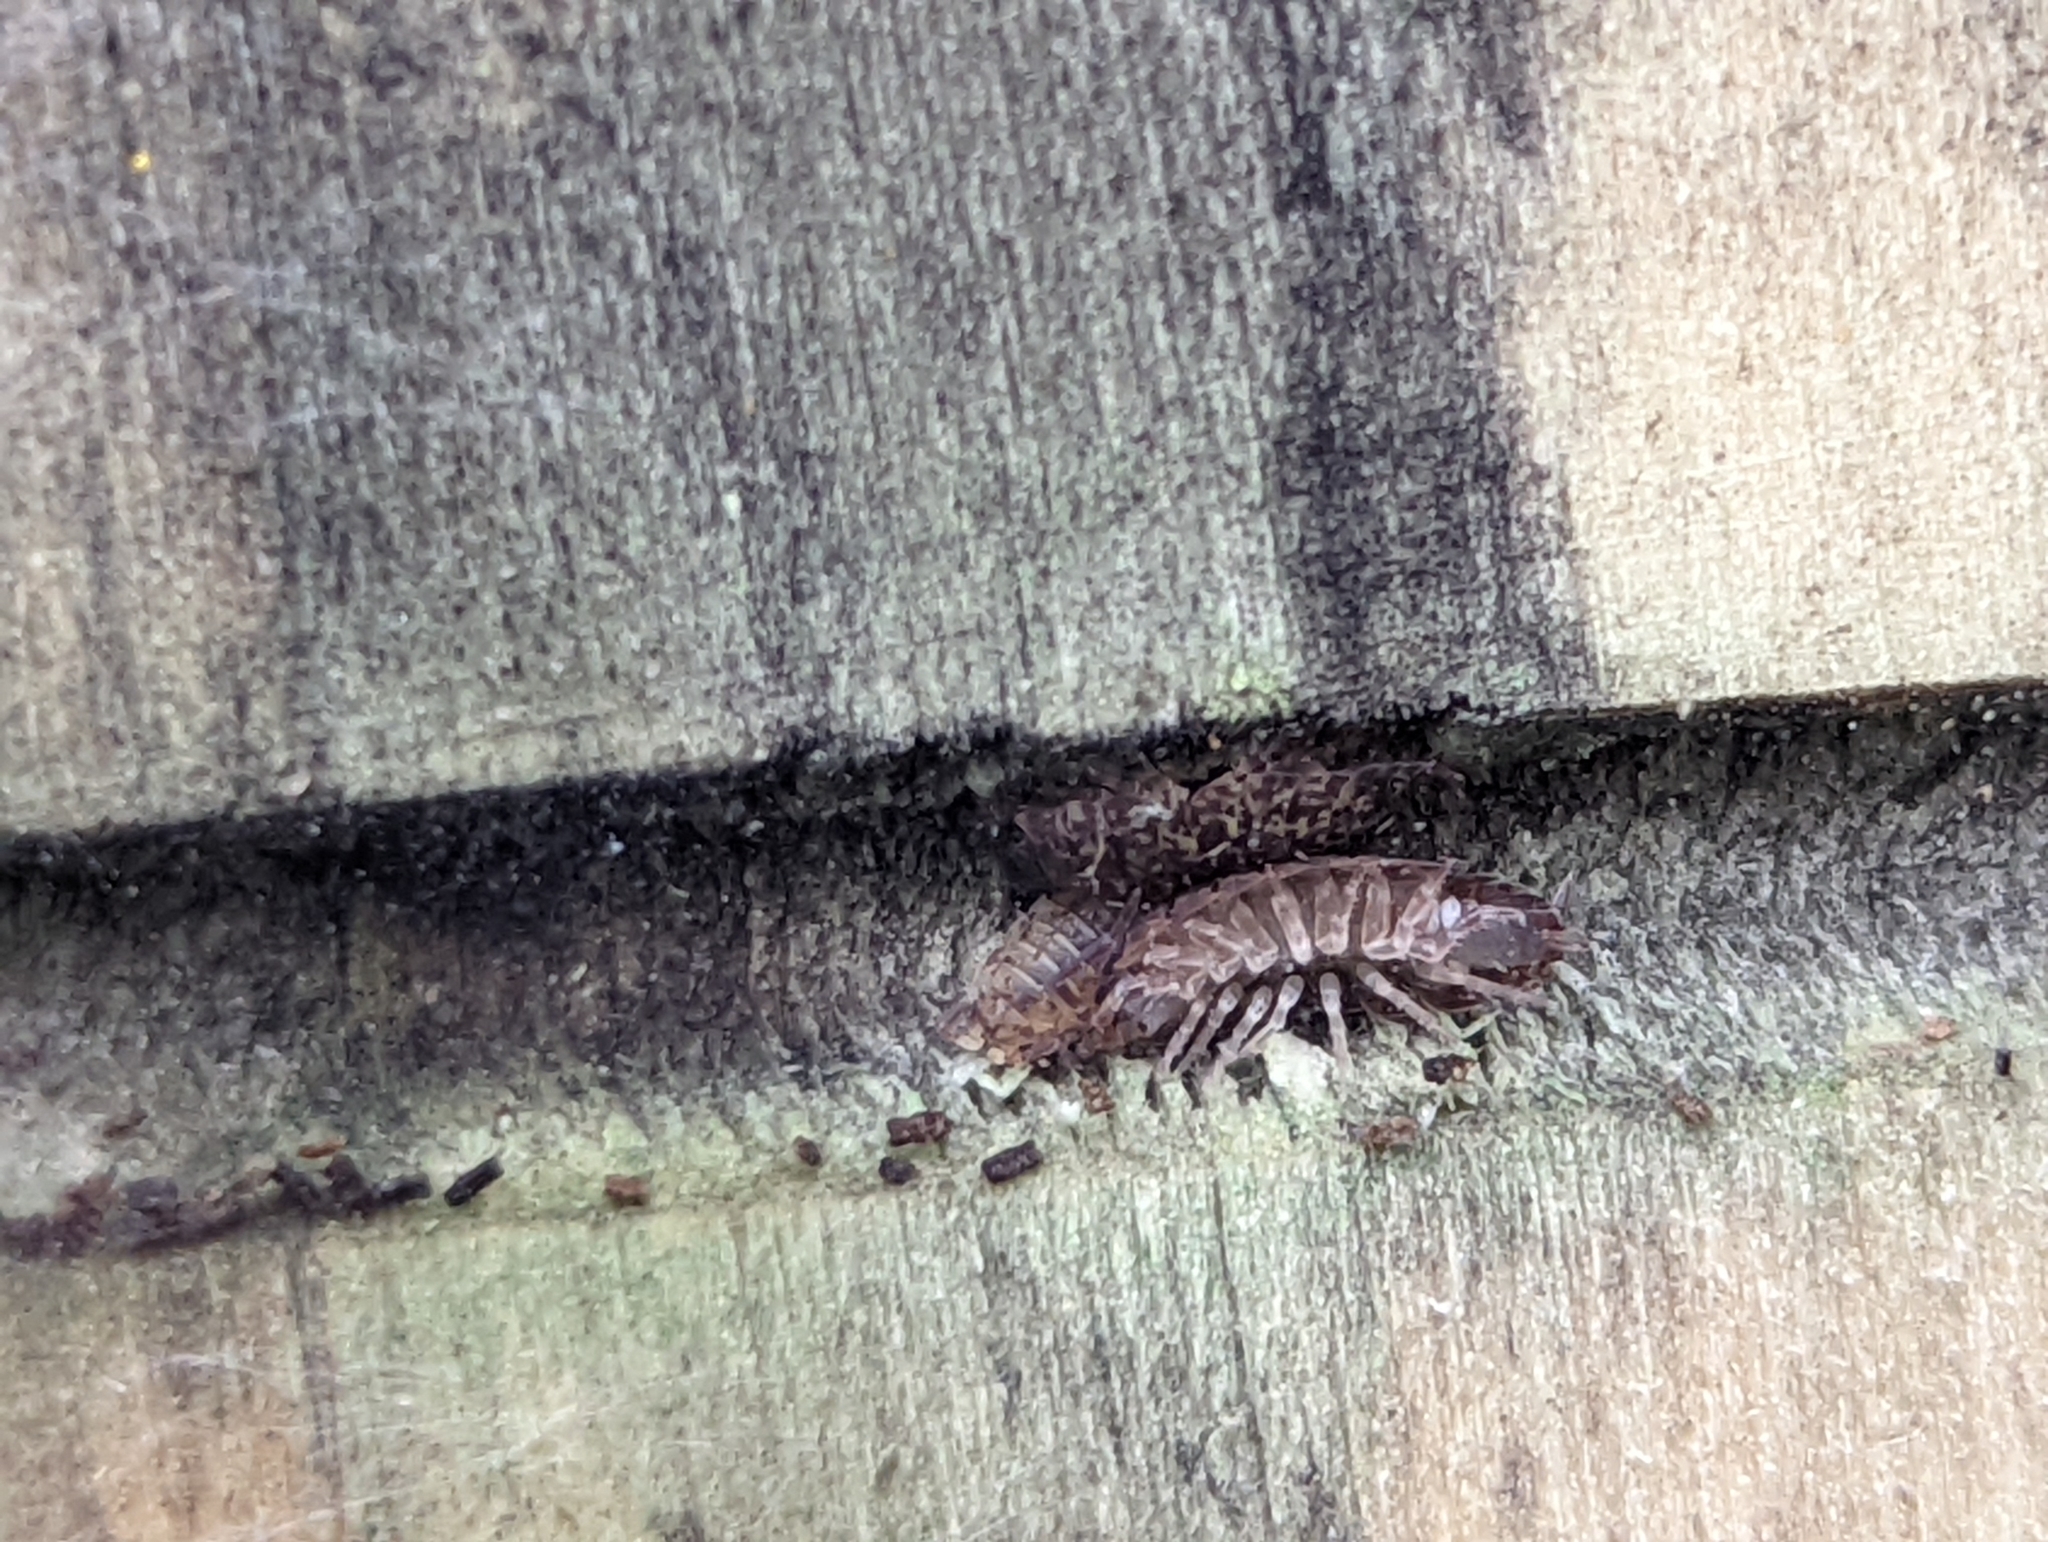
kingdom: Animalia
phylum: Arthropoda
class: Malacostraca
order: Isopoda
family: Porcellionidae
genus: Porcellio
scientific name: Porcellio scaber
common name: Common rough woodlouse
